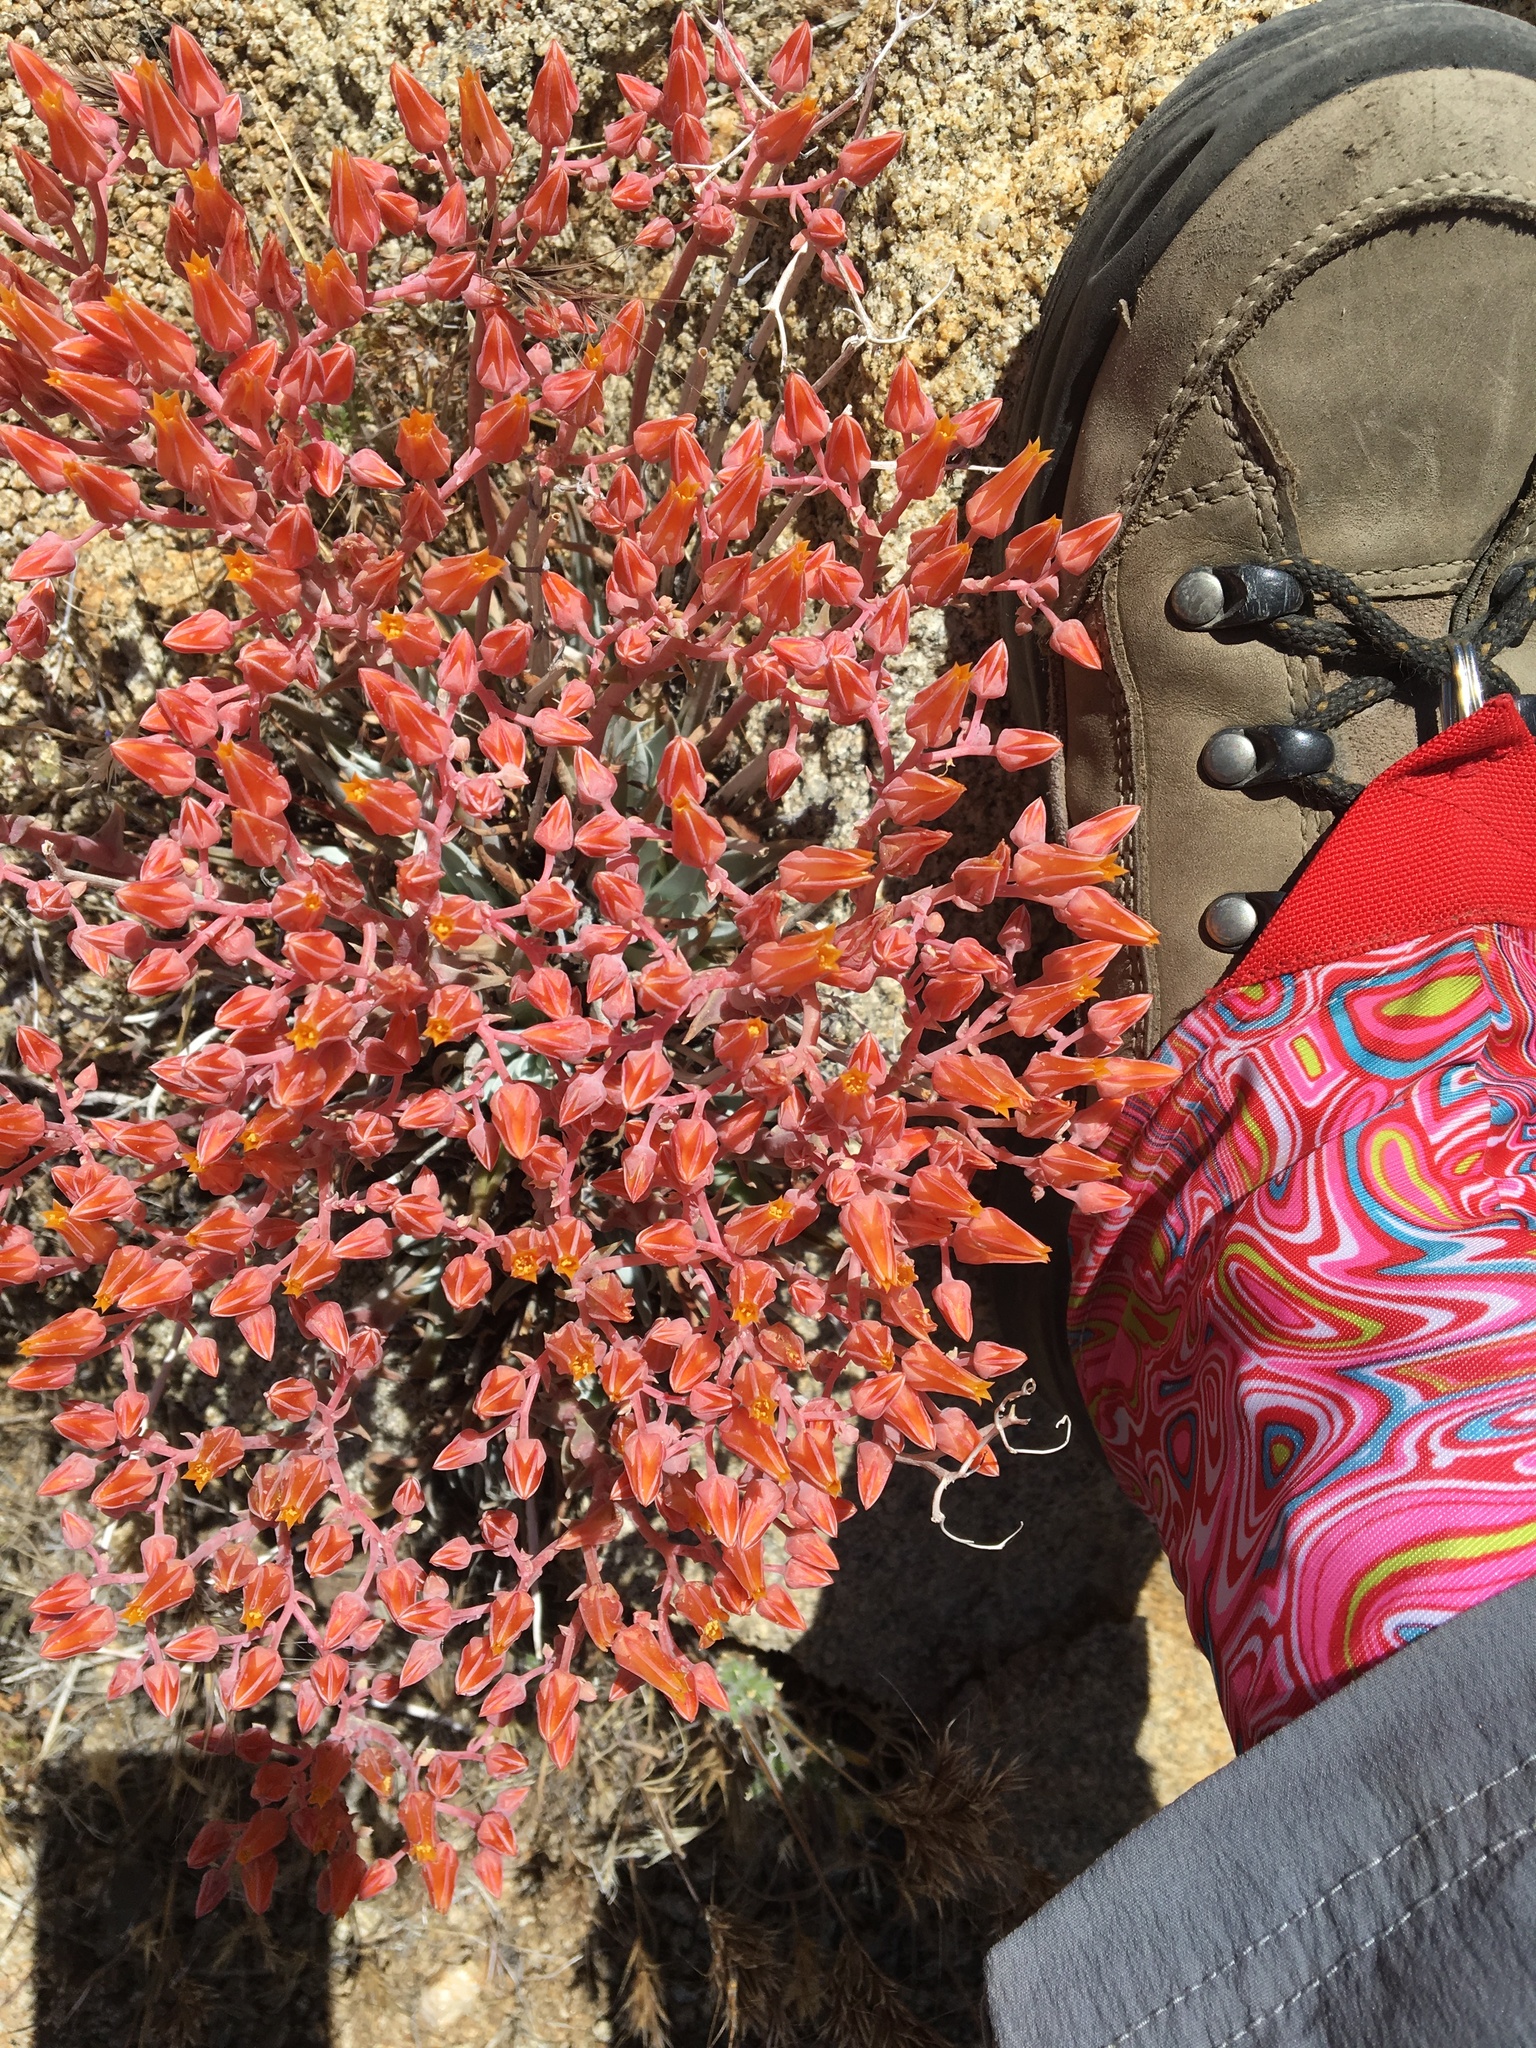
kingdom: Plantae
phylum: Tracheophyta
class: Magnoliopsida
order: Saxifragales
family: Crassulaceae
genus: Dudleya
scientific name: Dudleya saxosa
